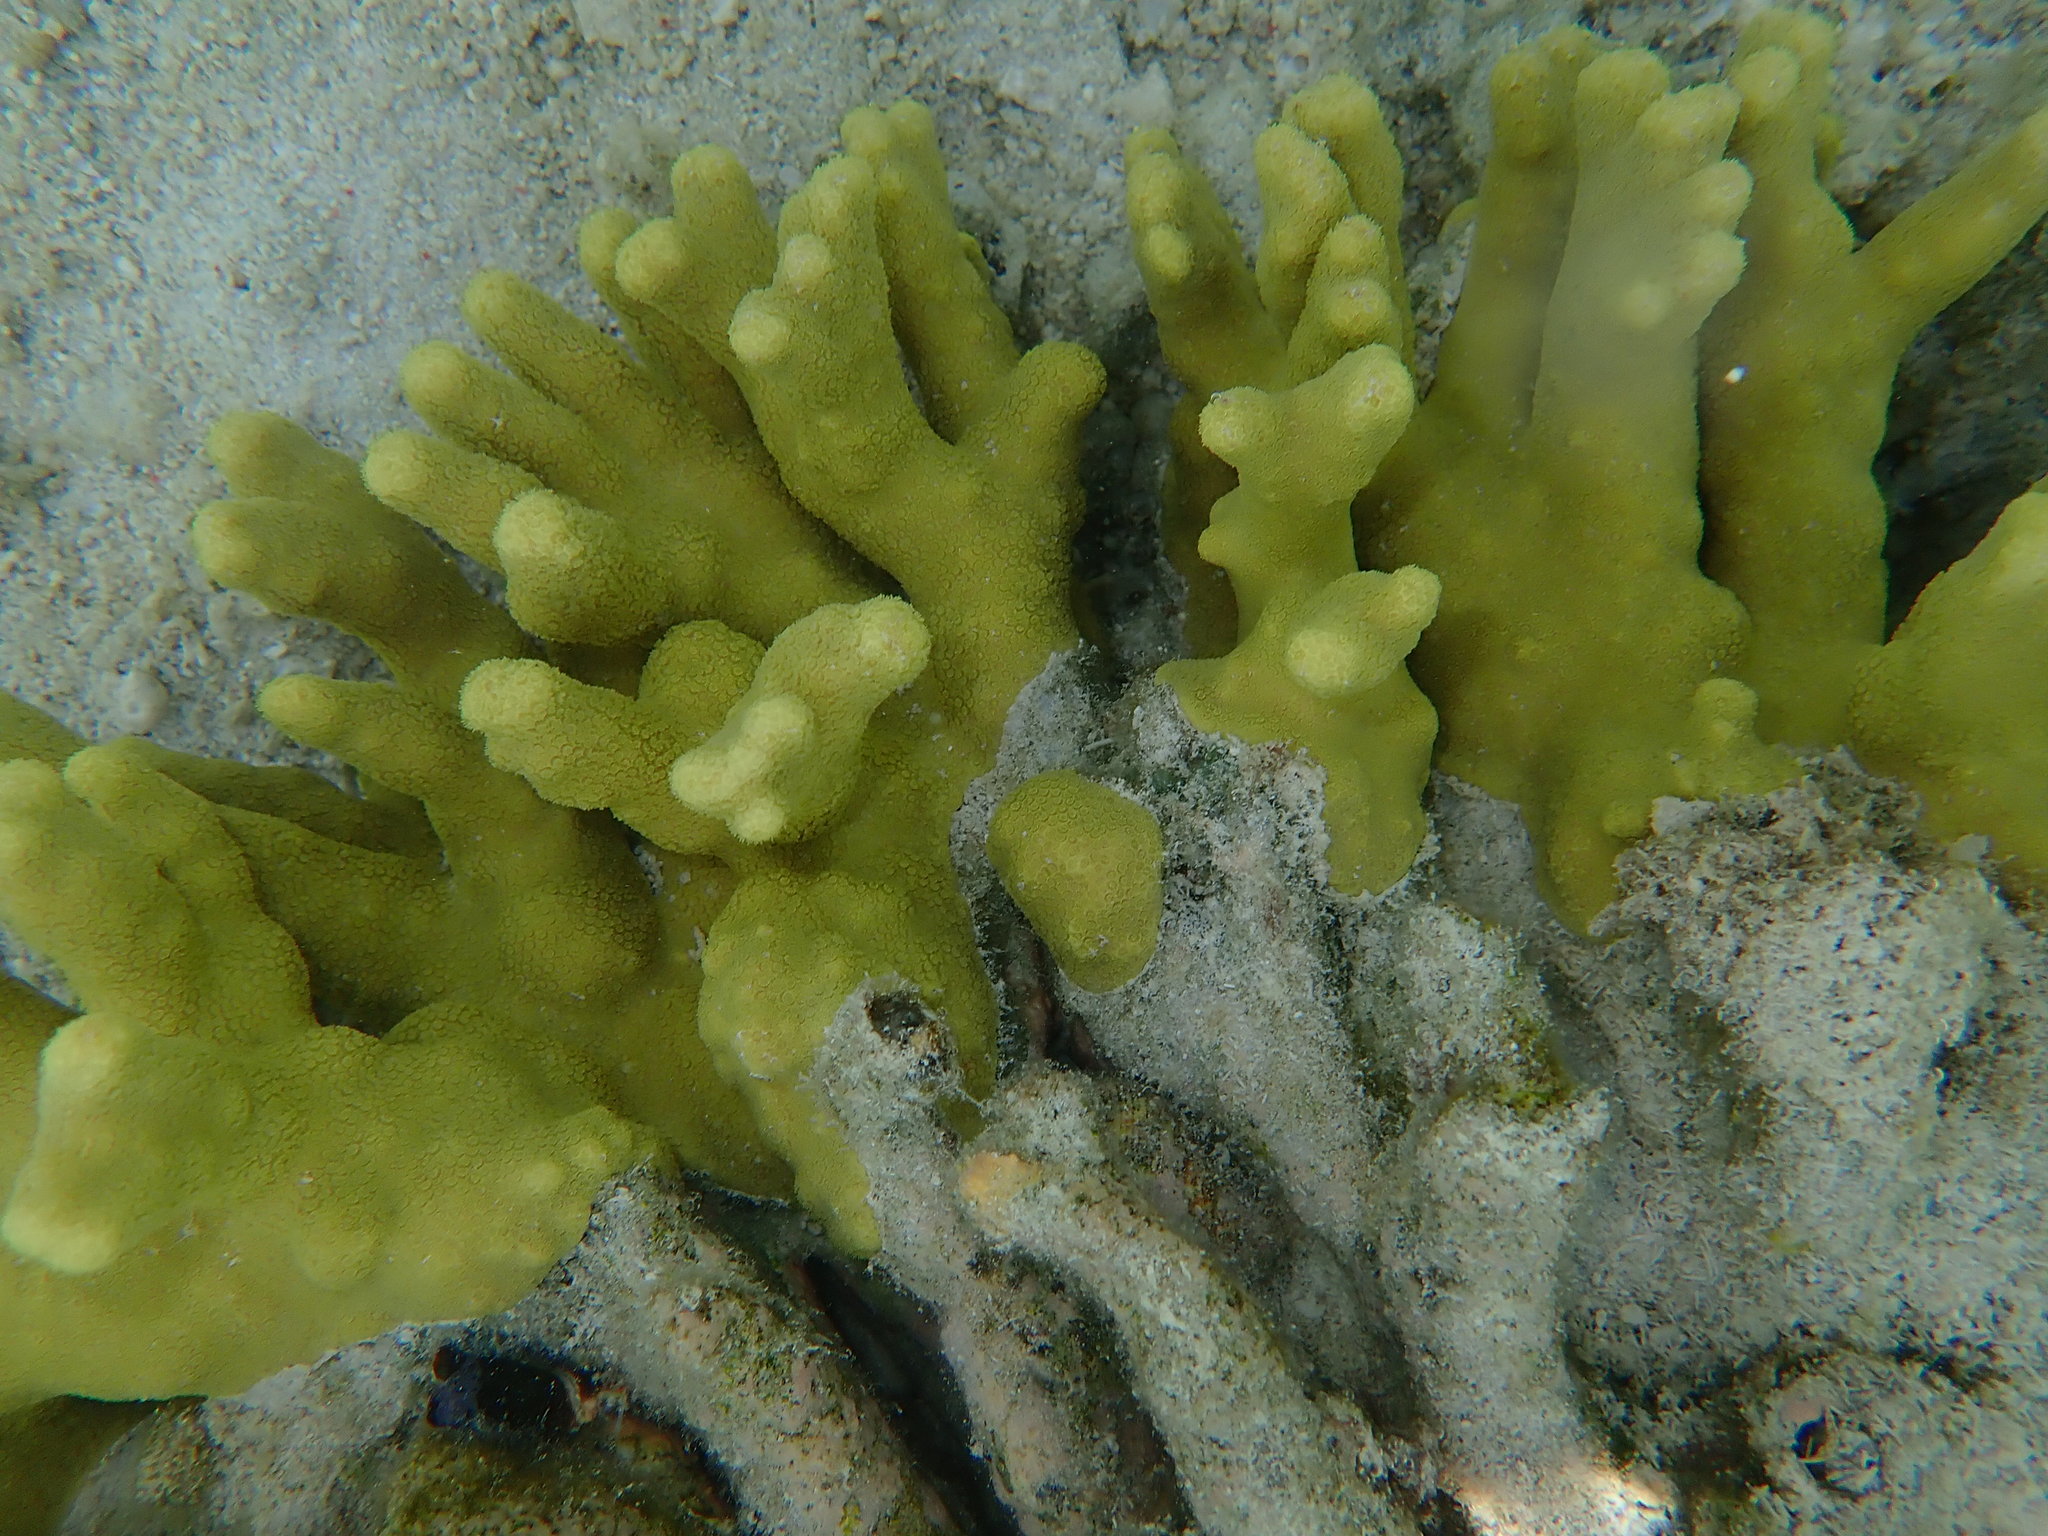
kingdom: Animalia
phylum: Cnidaria
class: Anthozoa
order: Scleractinia
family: Poritidae
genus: Porites
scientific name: Porites attenuata
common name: Hump coral
